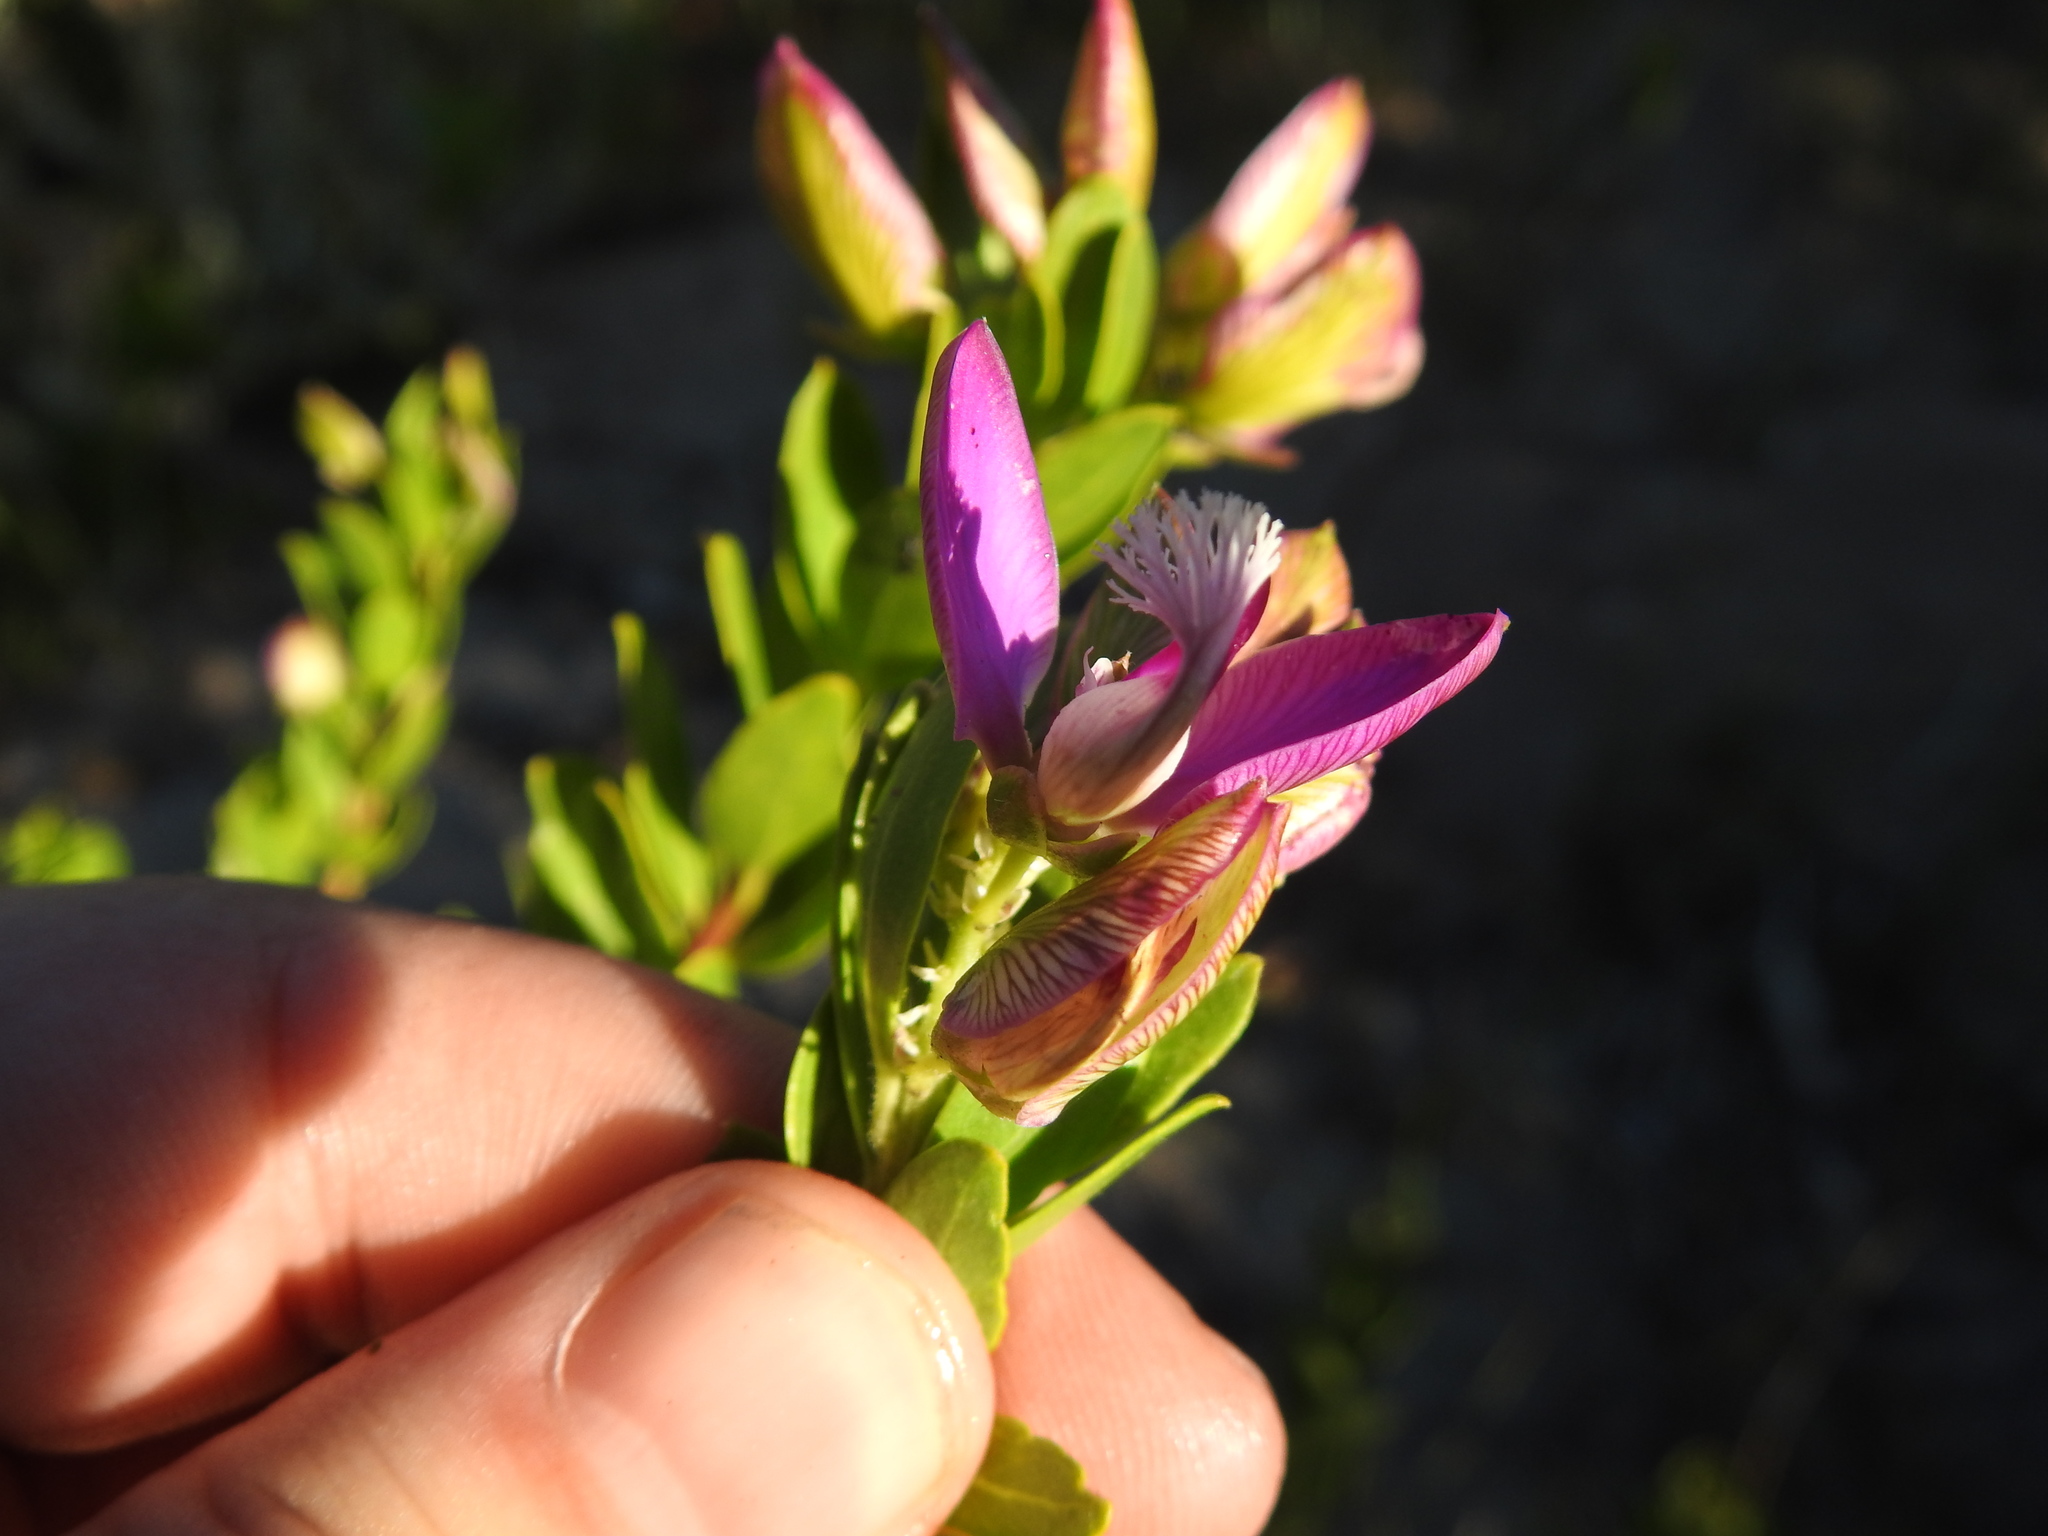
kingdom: Plantae
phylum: Tracheophyta
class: Magnoliopsida
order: Fabales
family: Polygalaceae
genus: Polygala
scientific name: Polygala myrtifolia
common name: Myrtle-leaf milkwort
